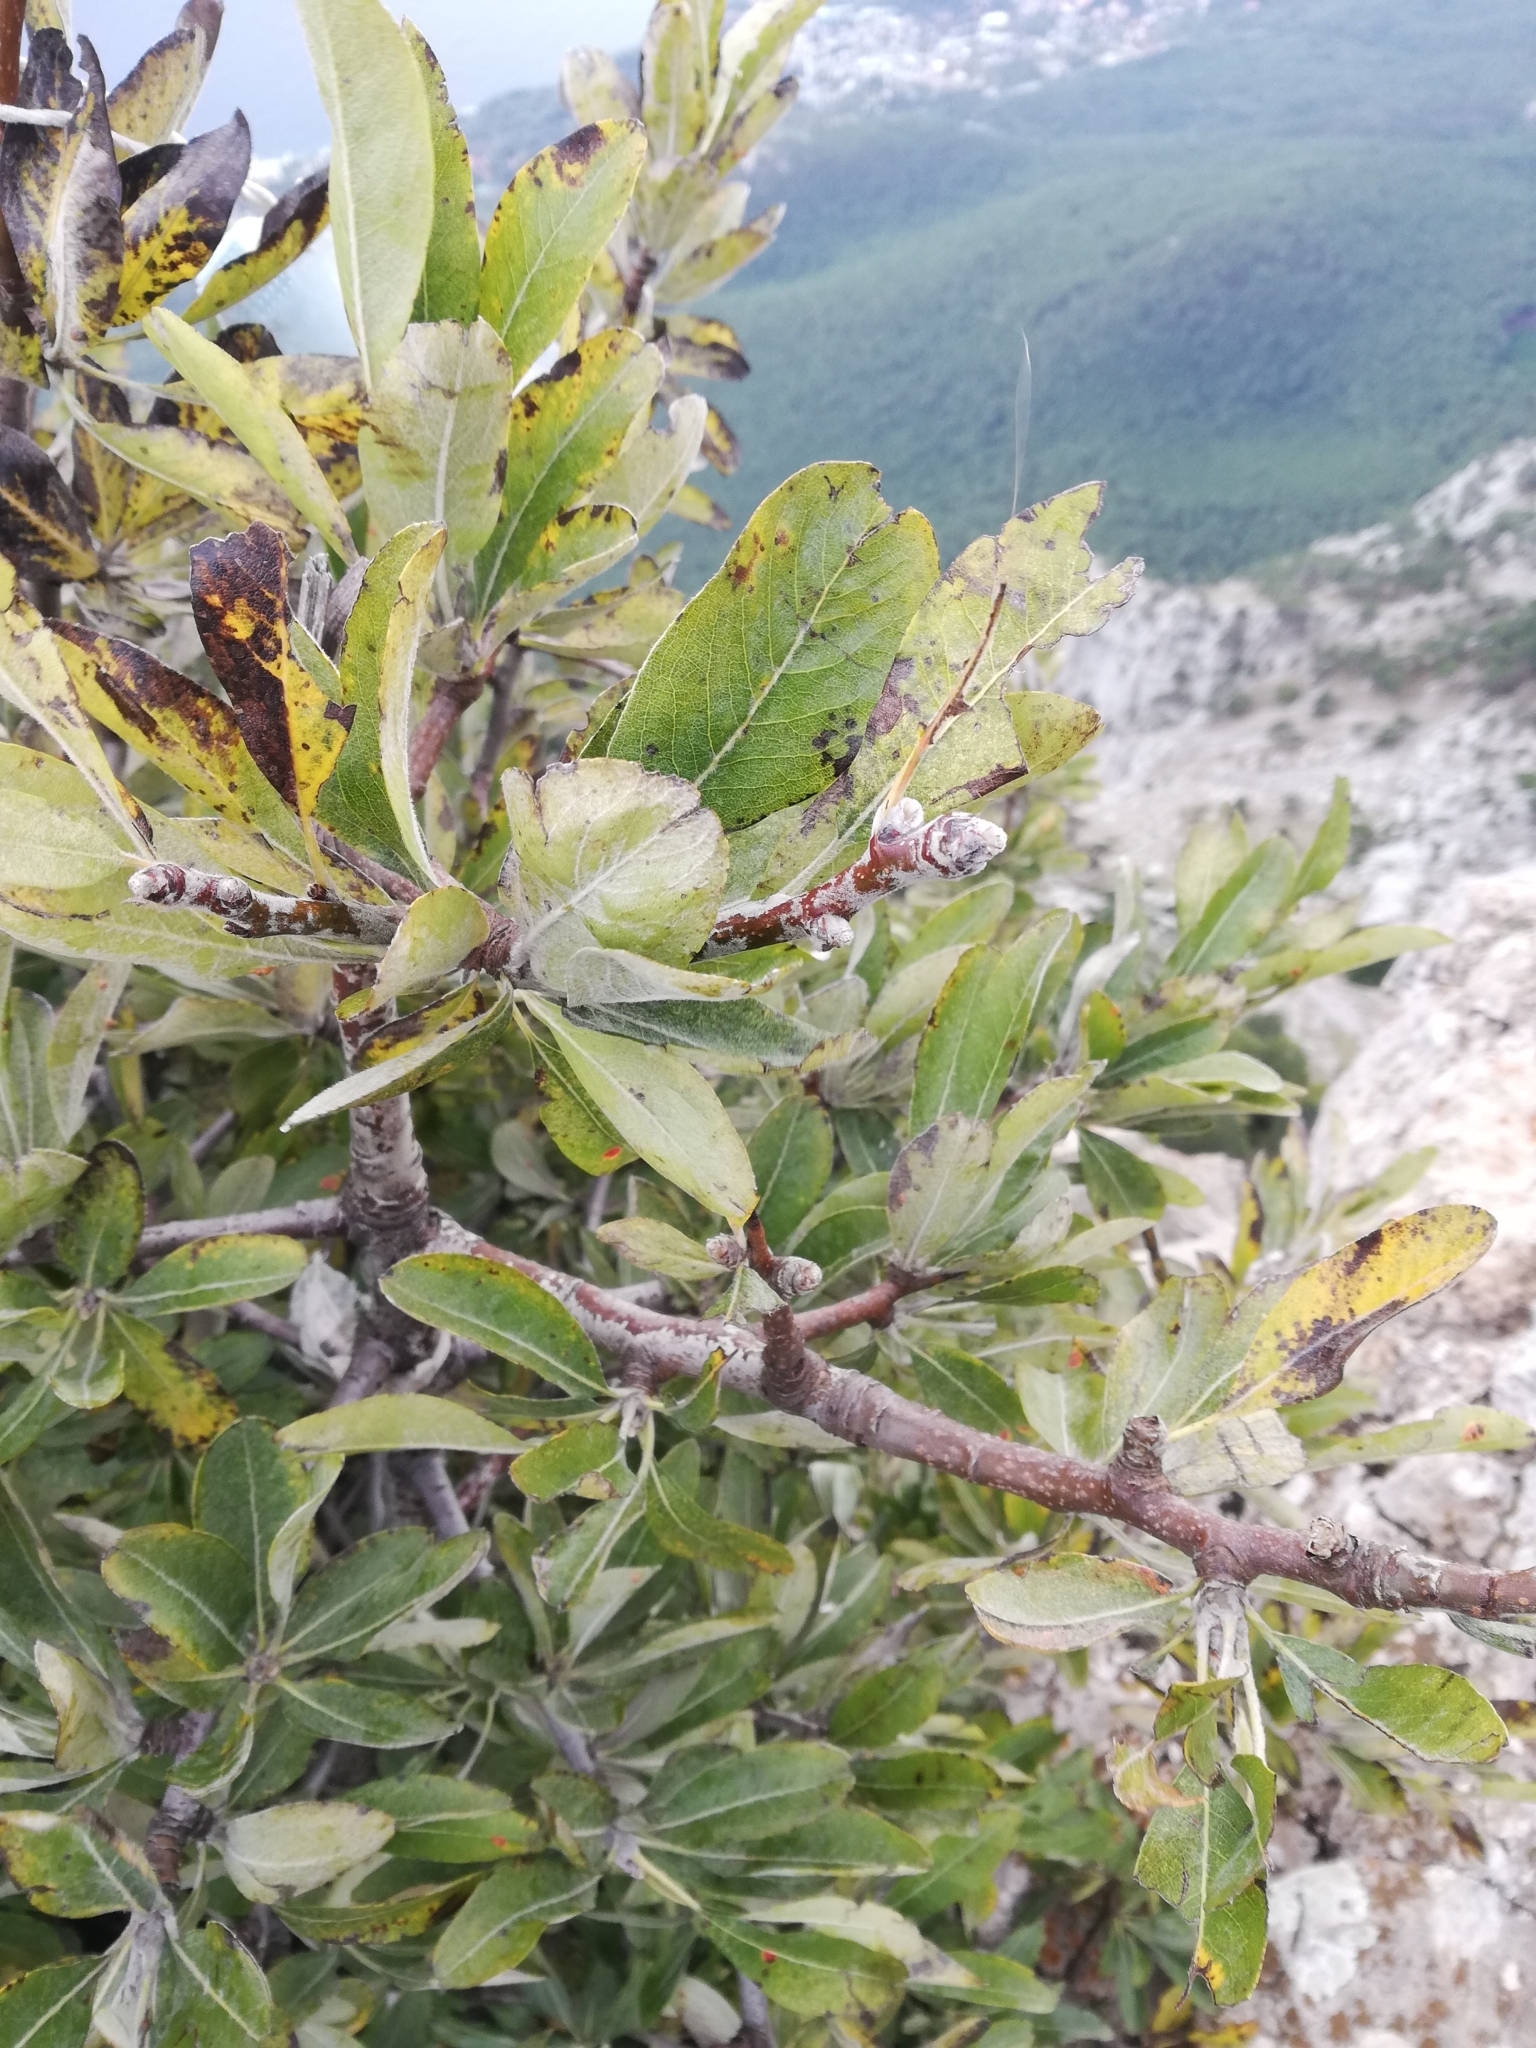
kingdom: Plantae
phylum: Tracheophyta
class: Magnoliopsida
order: Rosales
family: Rosaceae
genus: Pyrus
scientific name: Pyrus elaeagrifolia
